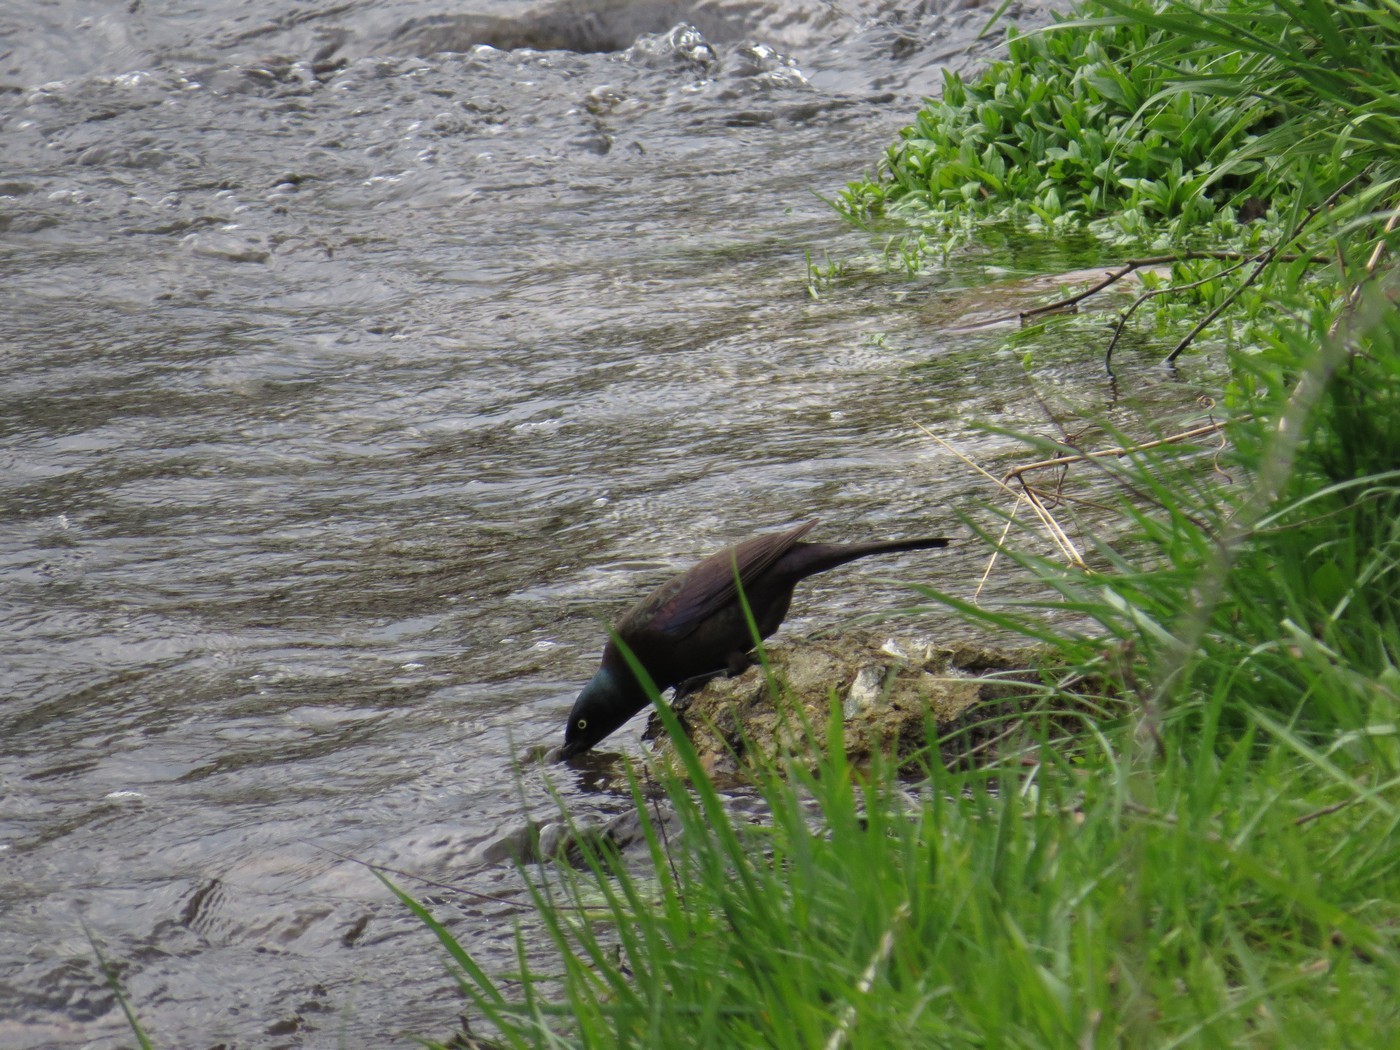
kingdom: Animalia
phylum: Chordata
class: Aves
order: Passeriformes
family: Icteridae
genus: Quiscalus
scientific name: Quiscalus quiscula
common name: Common grackle
